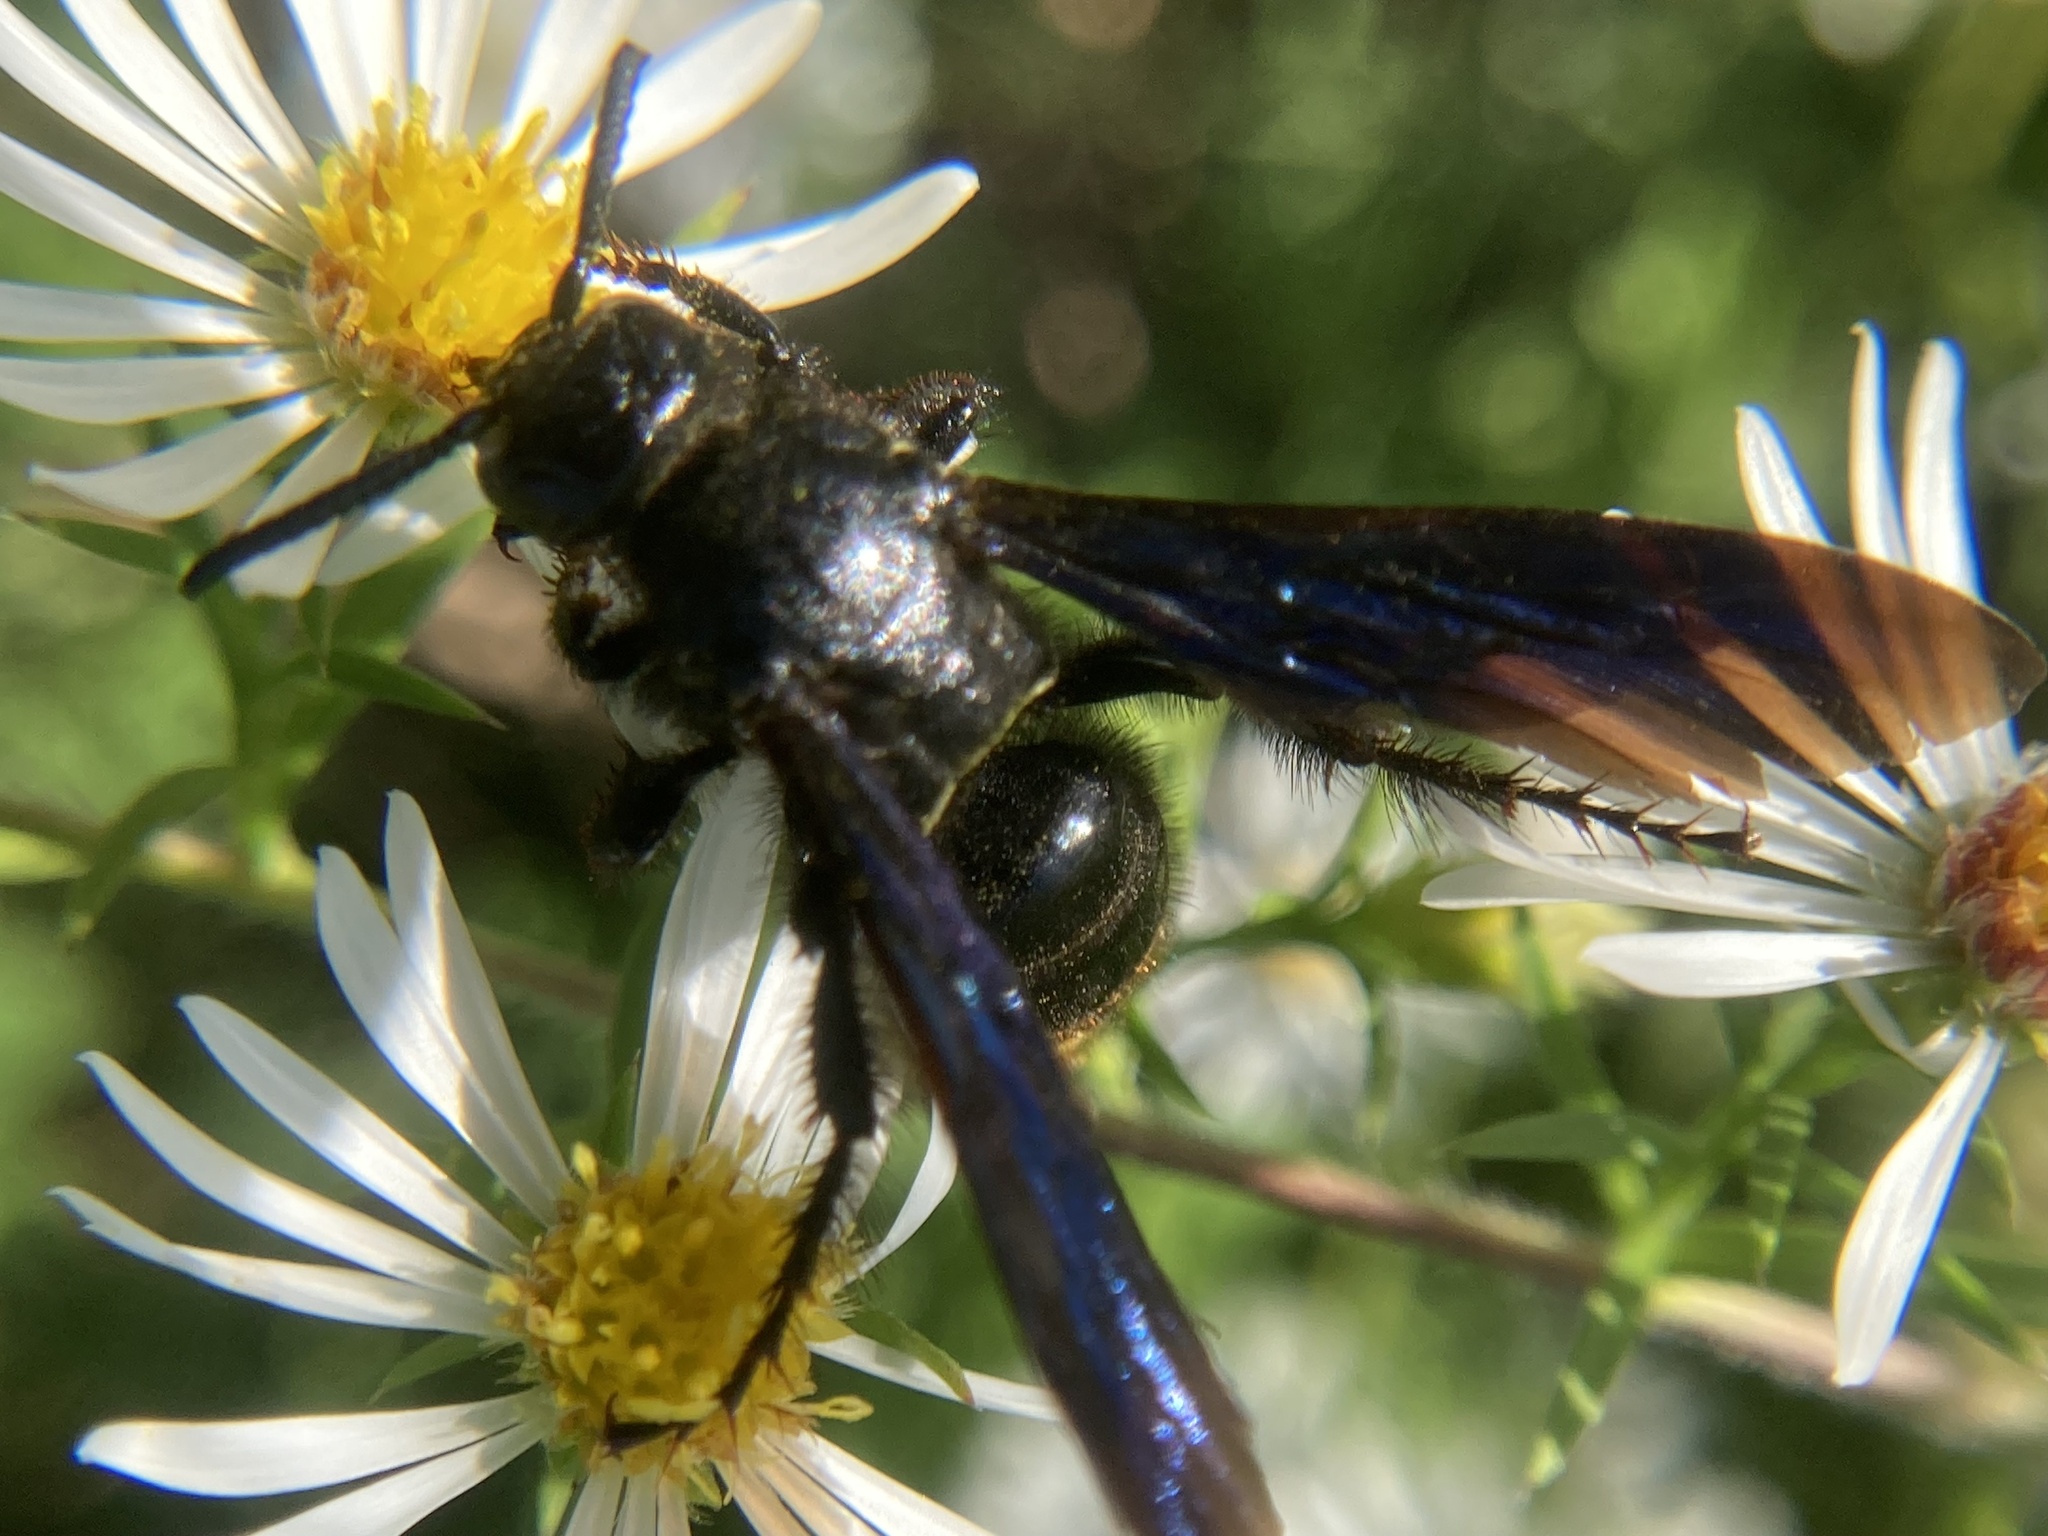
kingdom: Animalia
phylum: Arthropoda
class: Insecta
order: Hymenoptera
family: Scoliidae
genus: Scolia
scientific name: Scolia dubia
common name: Blue-winged scoliid wasp
